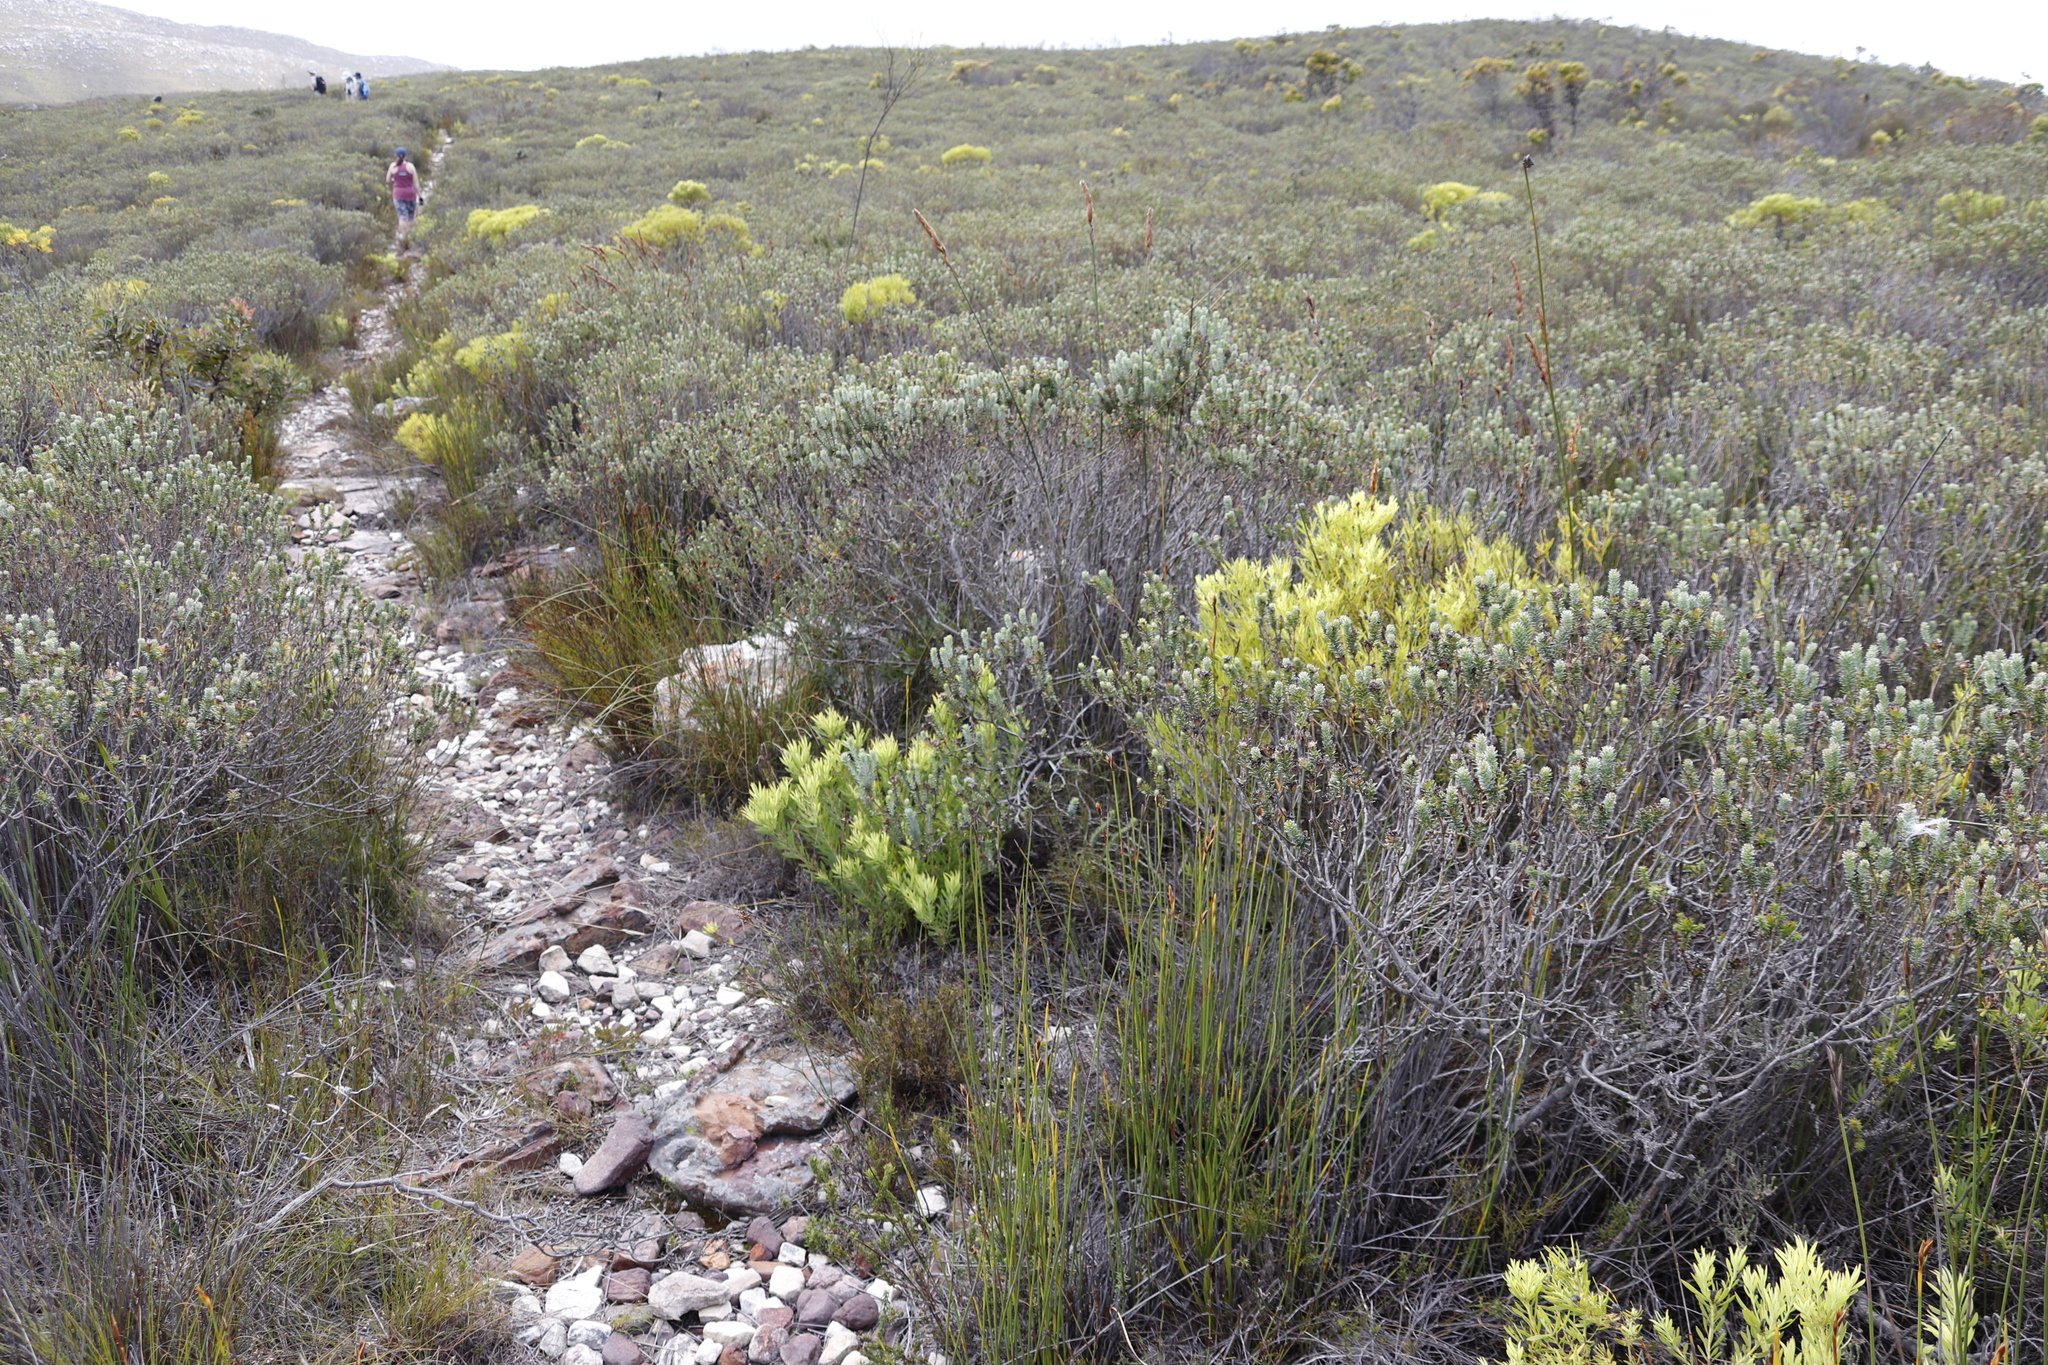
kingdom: Plantae
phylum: Tracheophyta
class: Magnoliopsida
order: Proteales
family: Proteaceae
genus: Leucadendron
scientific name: Leucadendron salignum
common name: Common sunshine conebush
